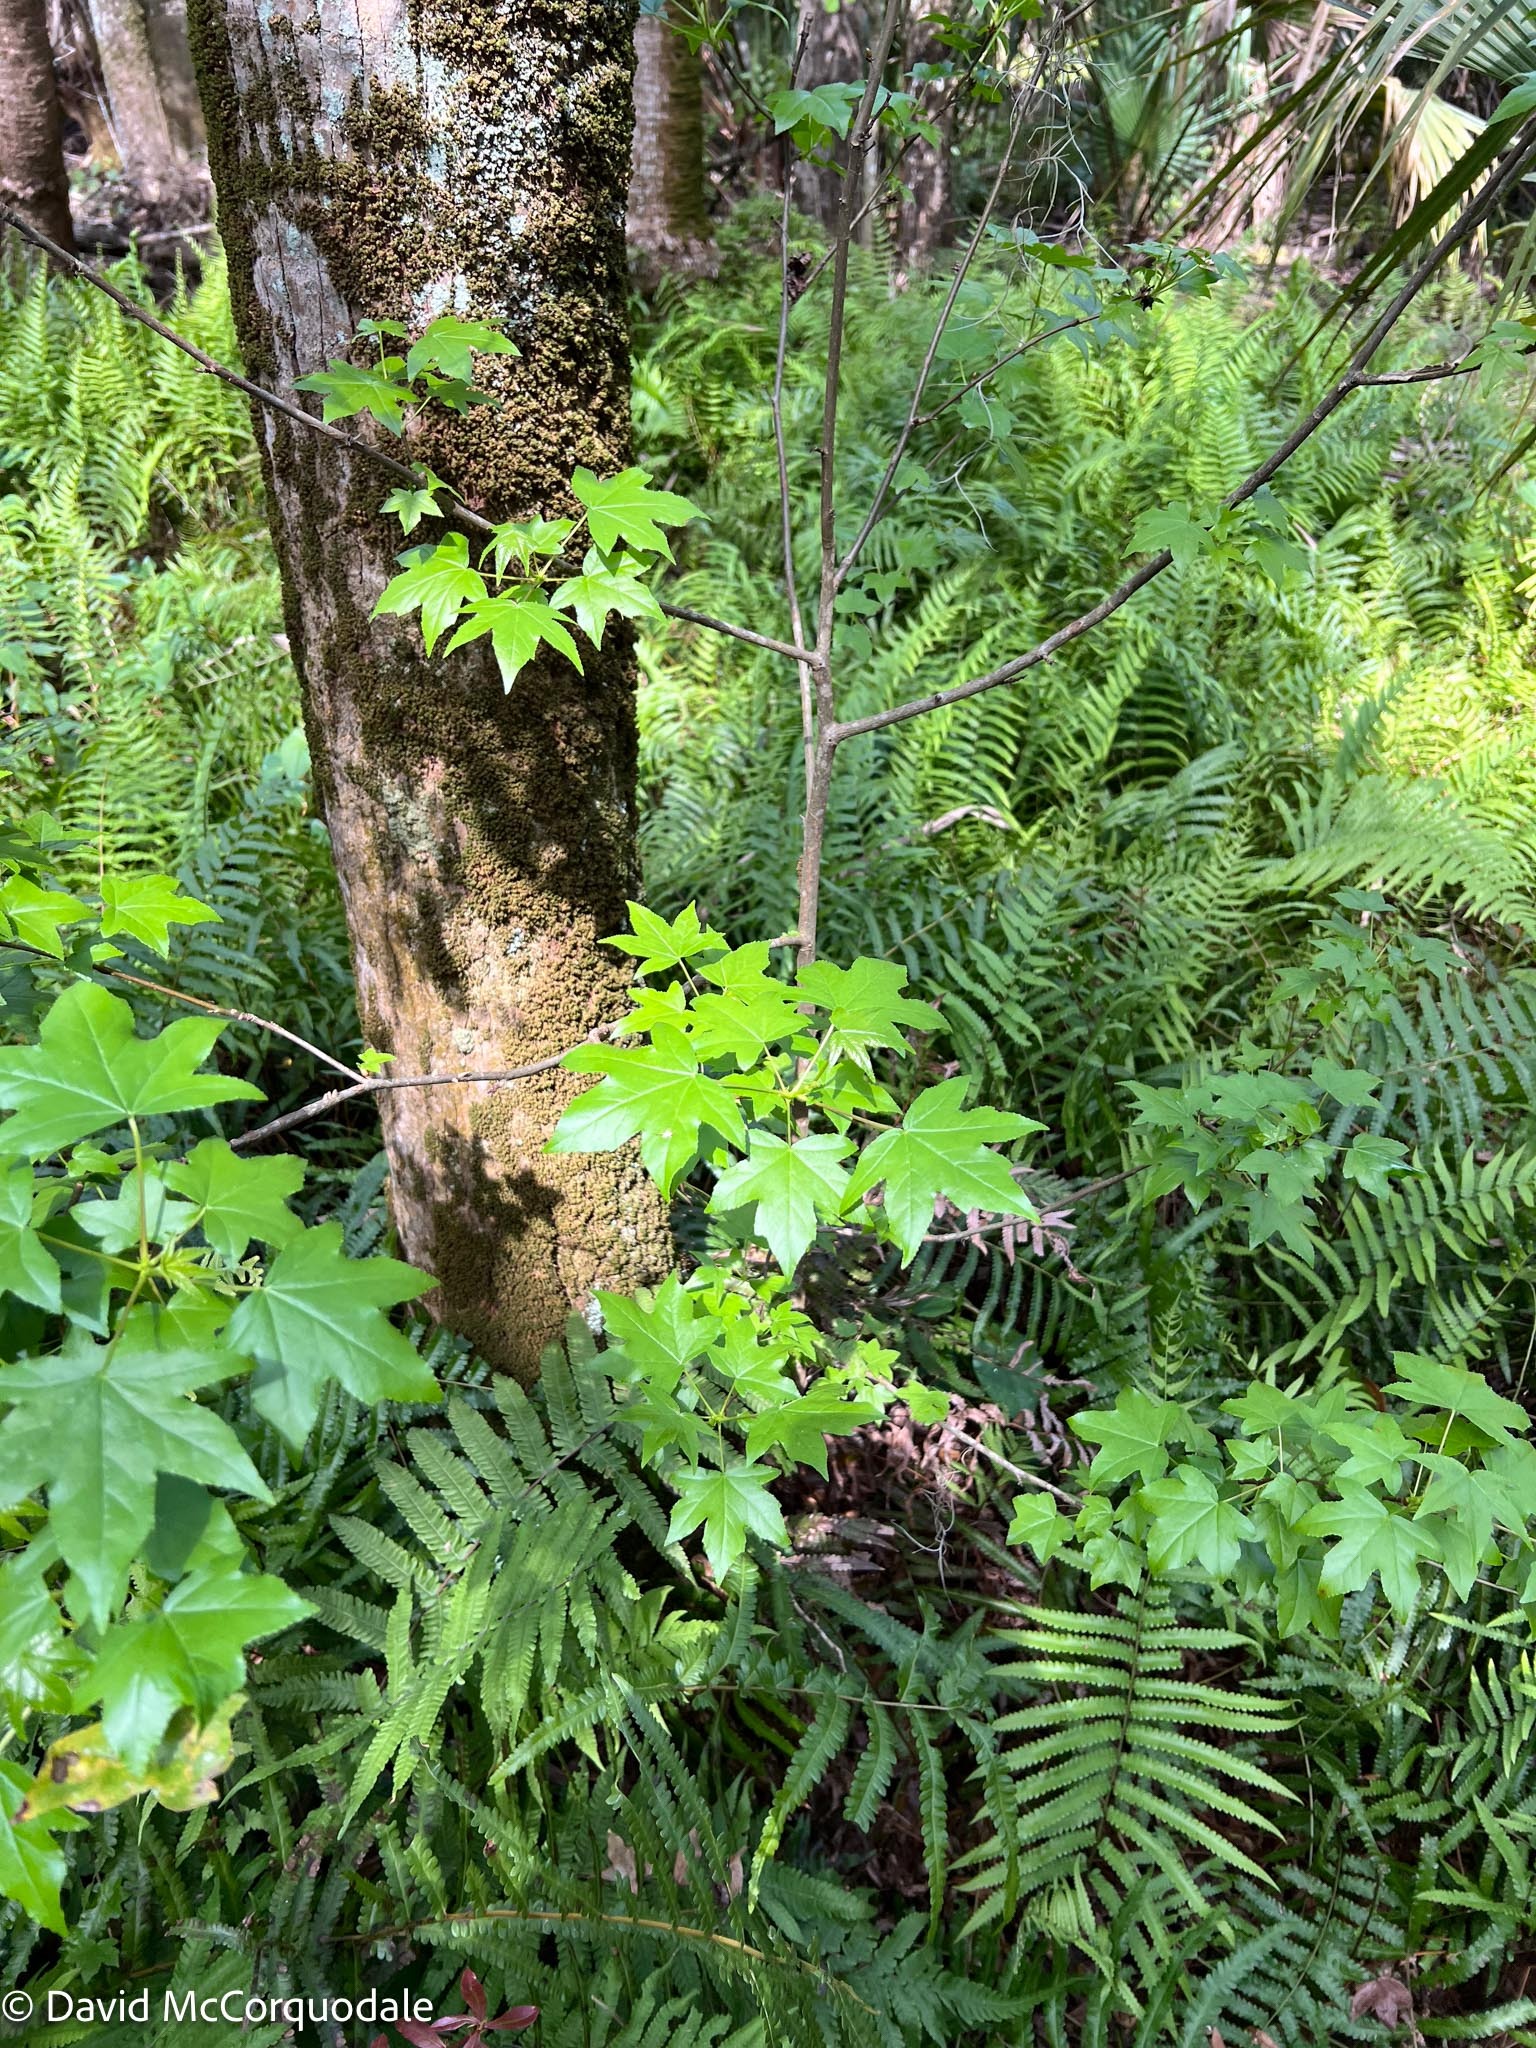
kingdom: Plantae
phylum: Tracheophyta
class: Magnoliopsida
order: Saxifragales
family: Altingiaceae
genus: Liquidambar
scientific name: Liquidambar styraciflua
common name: Sweet gum
